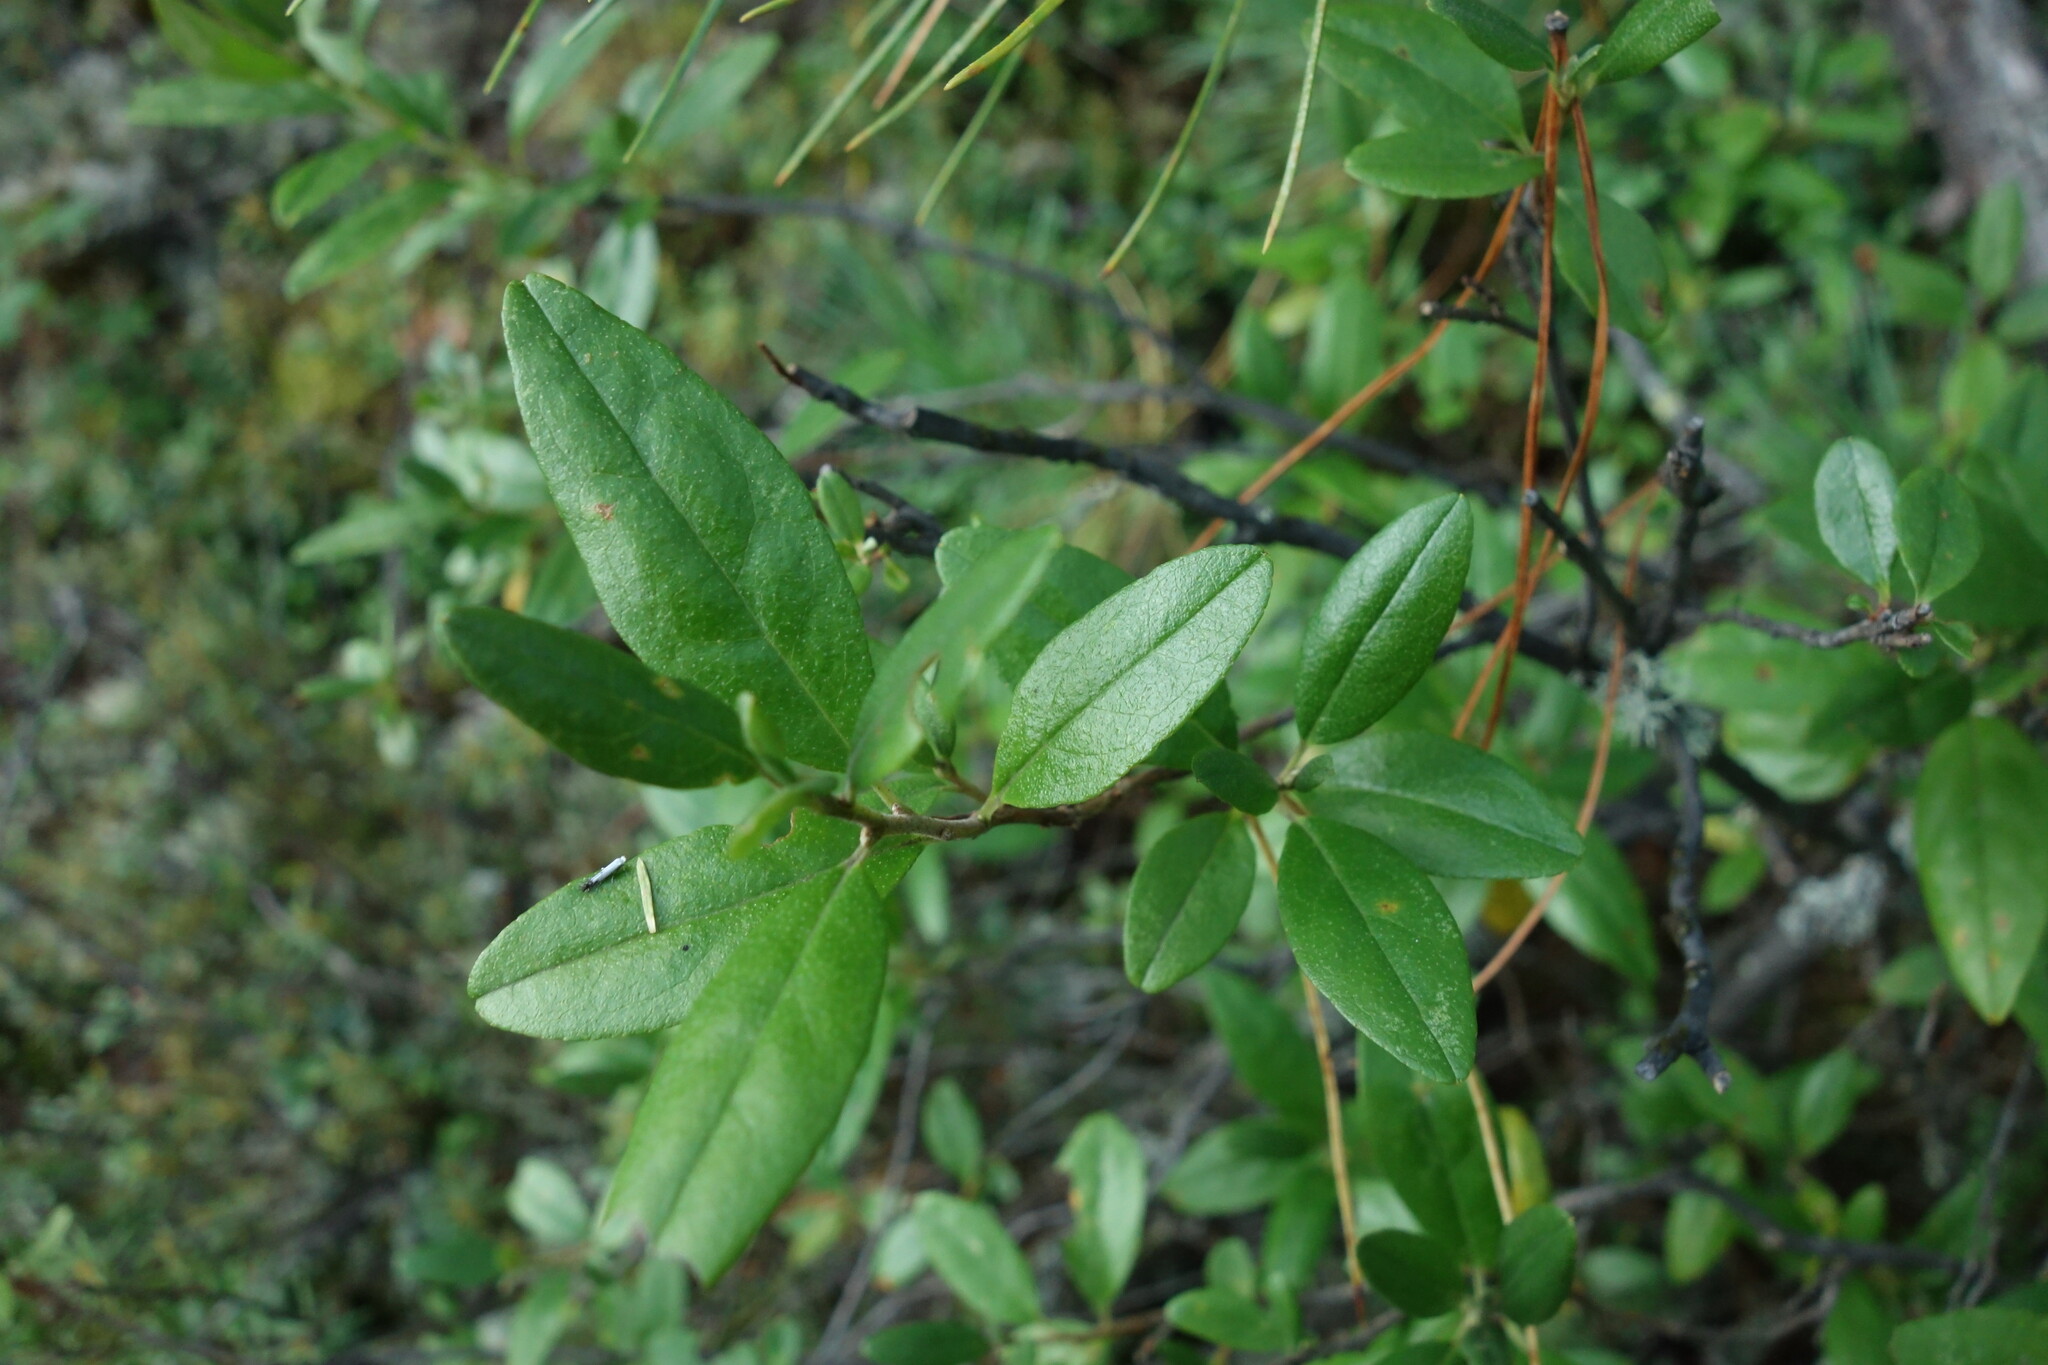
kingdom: Plantae
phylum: Tracheophyta
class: Magnoliopsida
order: Ericales
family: Ericaceae
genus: Rhododendron
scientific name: Rhododendron dauricum
